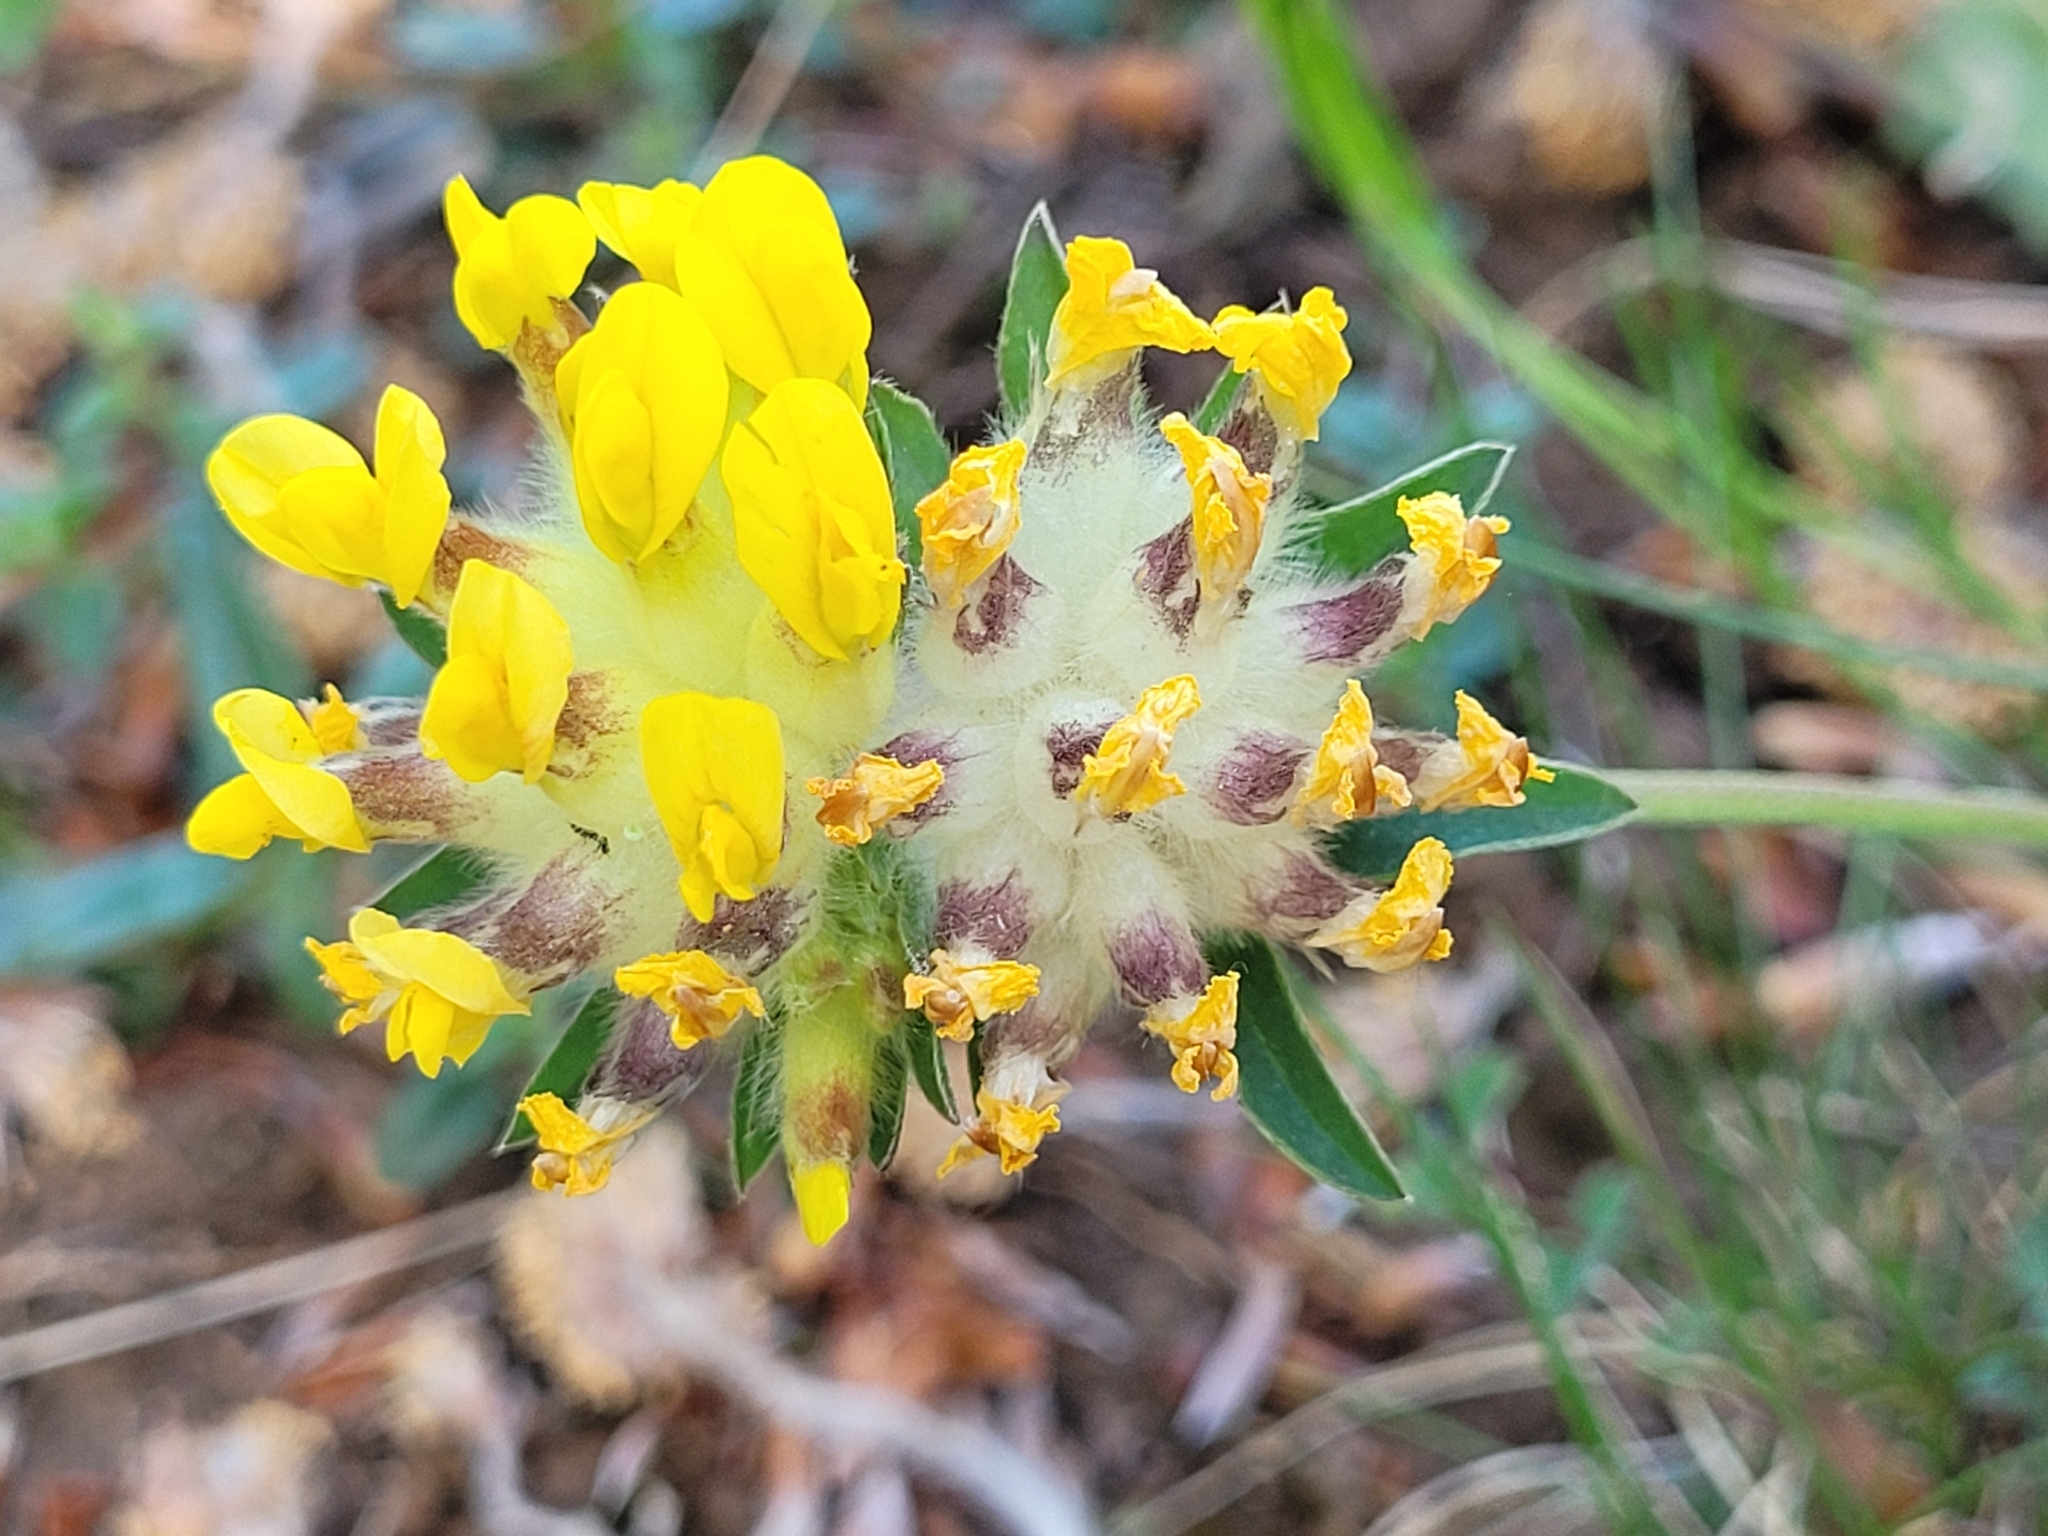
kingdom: Plantae
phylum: Tracheophyta
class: Magnoliopsida
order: Fabales
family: Fabaceae
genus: Anthyllis
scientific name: Anthyllis vulneraria
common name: Kidney vetch
